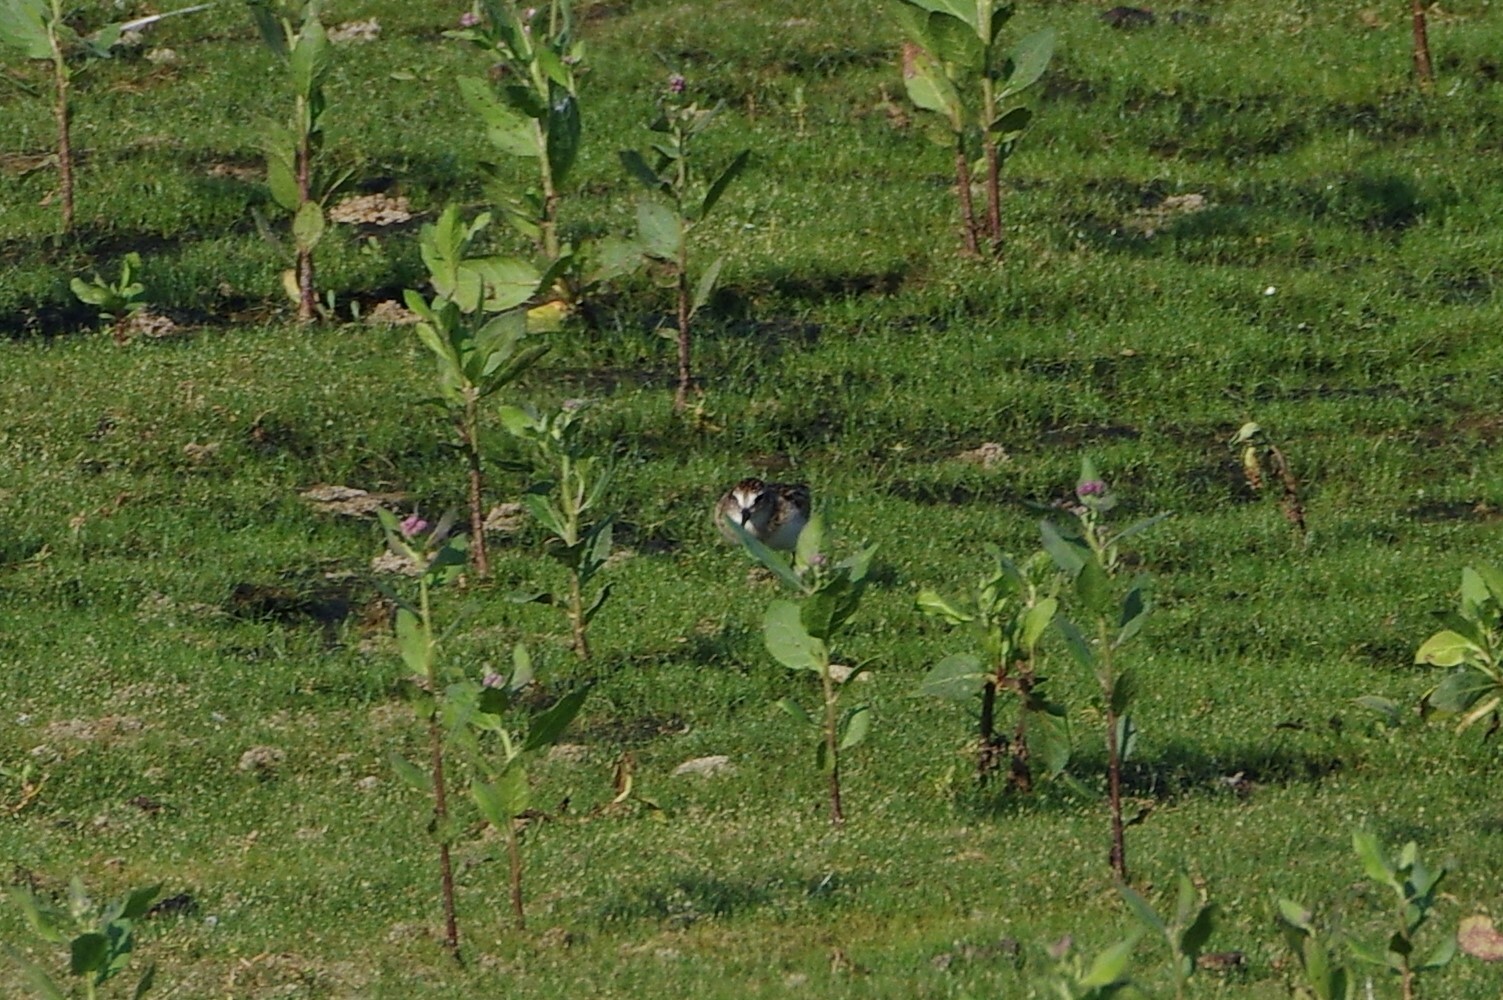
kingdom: Animalia
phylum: Chordata
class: Aves
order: Charadriiformes
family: Scolopacidae
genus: Calidris
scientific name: Calidris minutilla
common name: Least sandpiper
